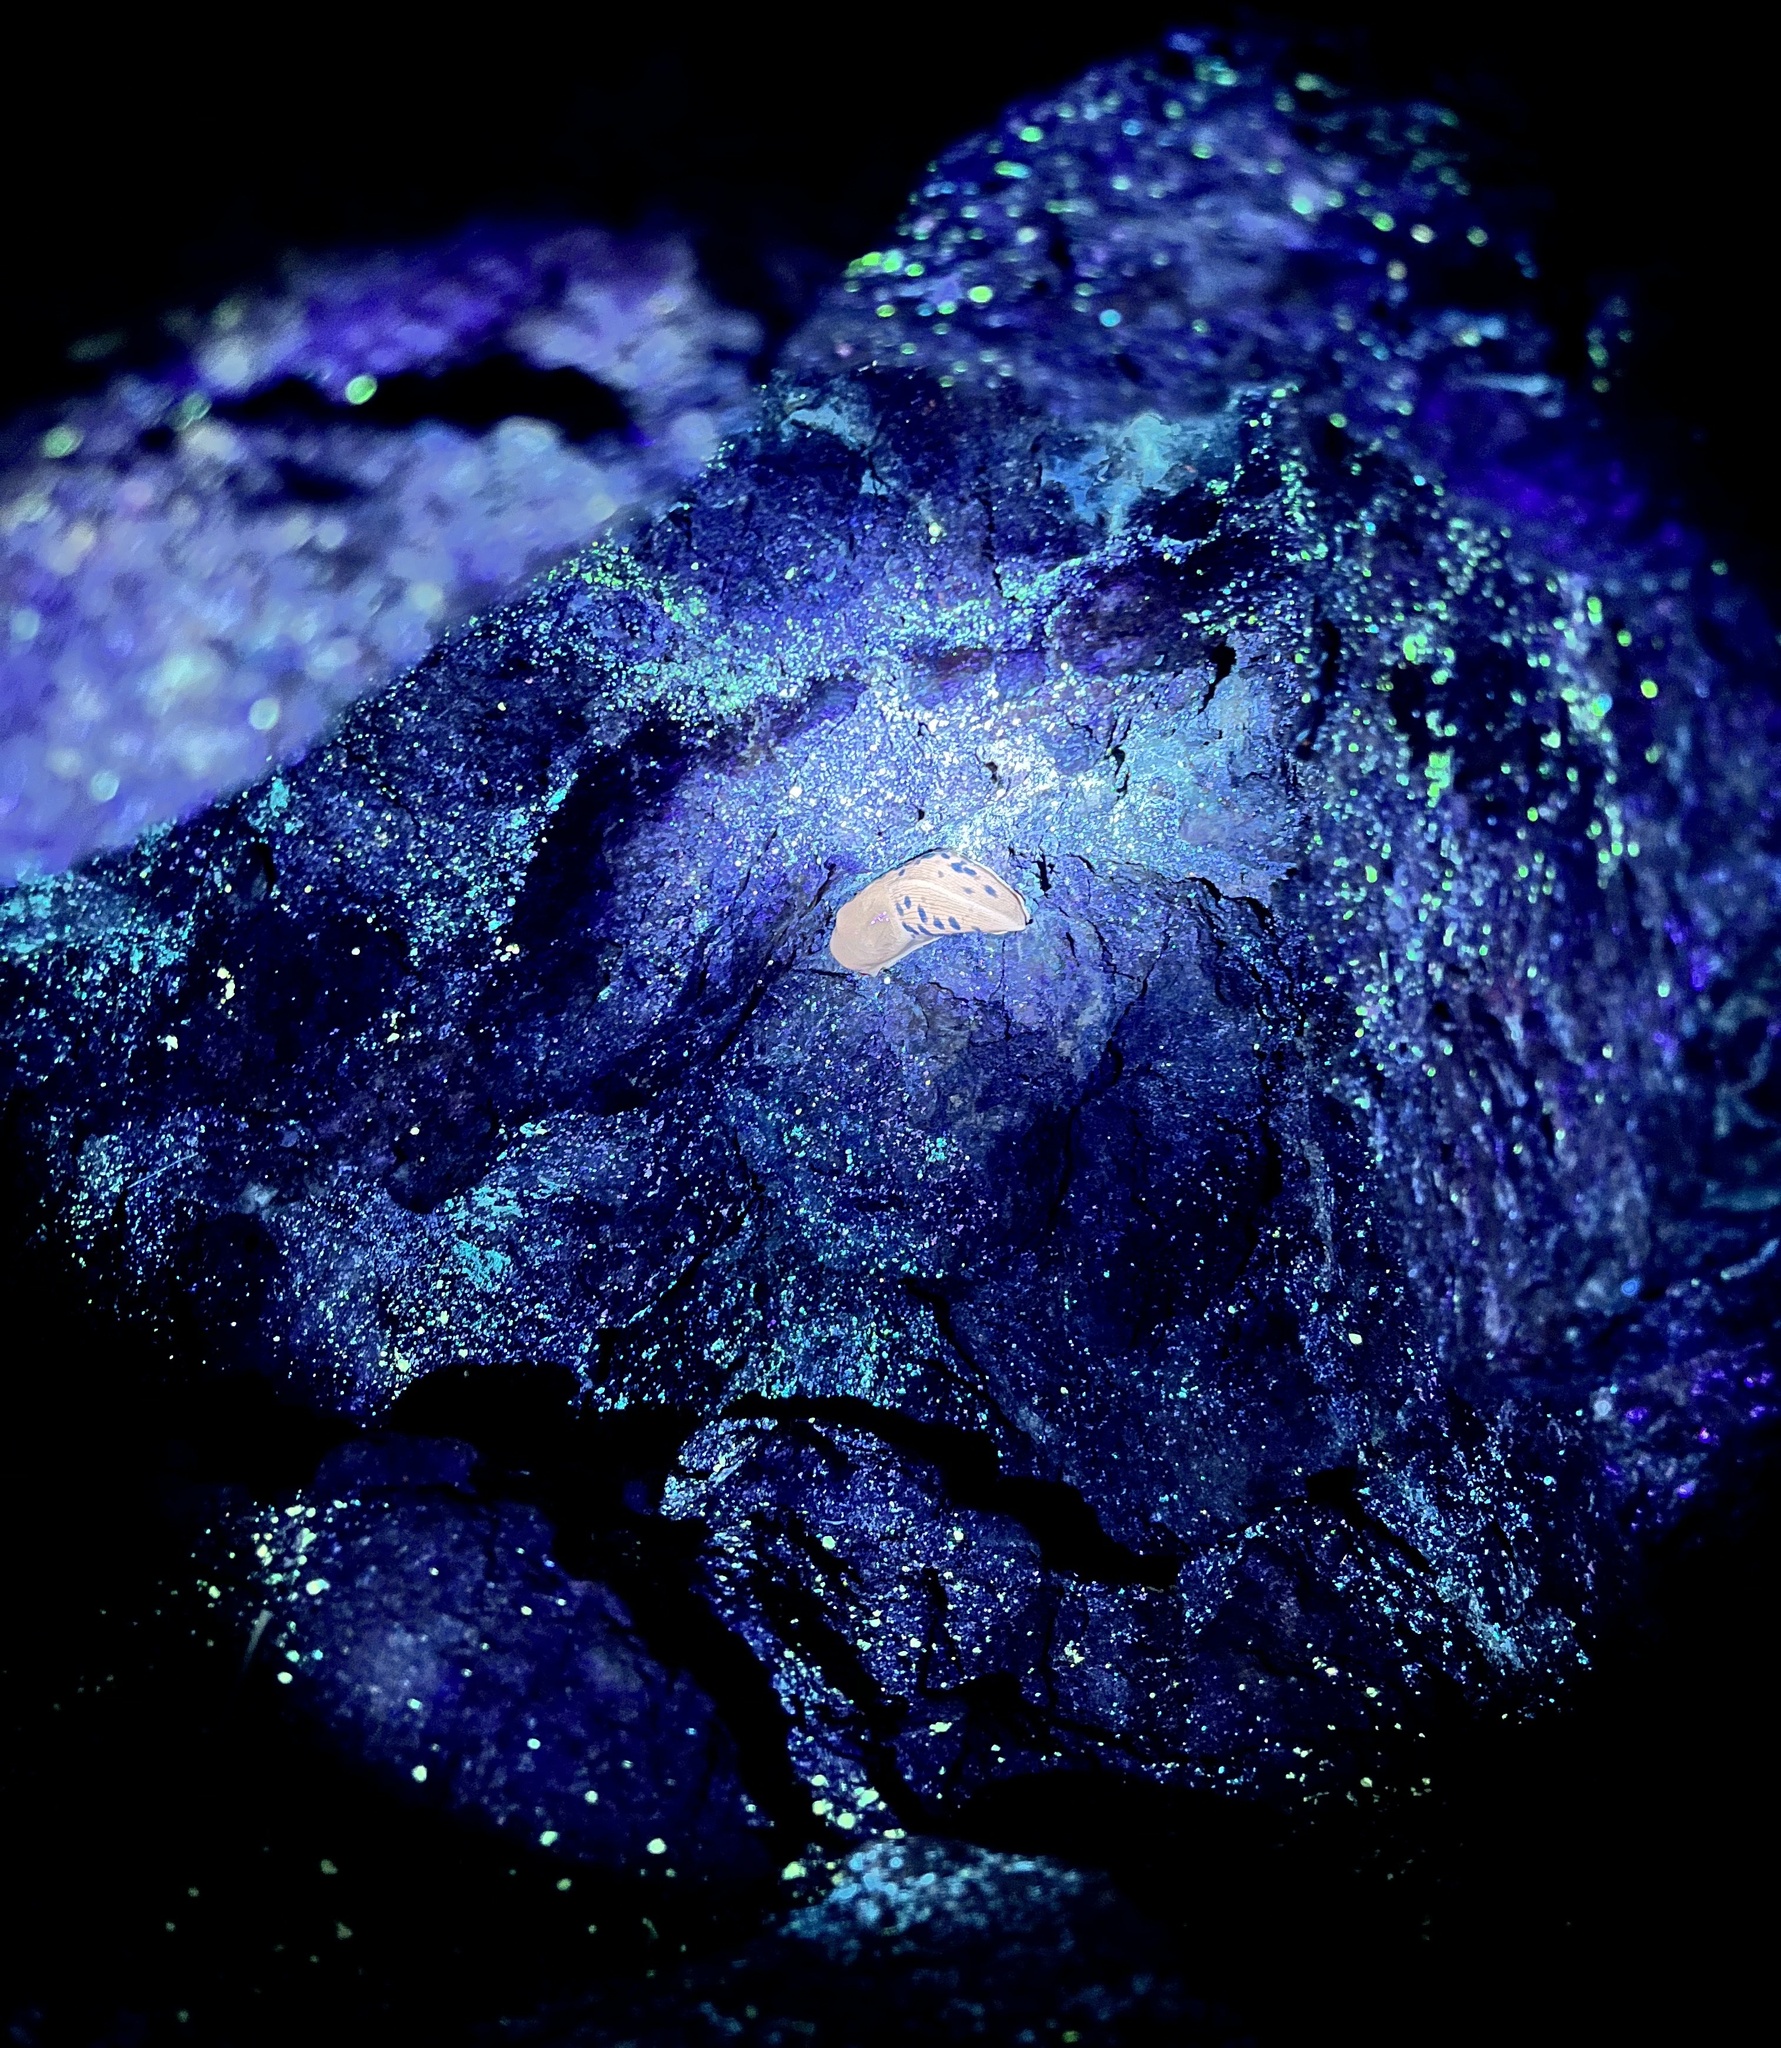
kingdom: Animalia
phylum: Mollusca
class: Gastropoda
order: Stylommatophora
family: Ariolimacidae
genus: Ariolimax
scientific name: Ariolimax columbianus
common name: Pacific banana slug
